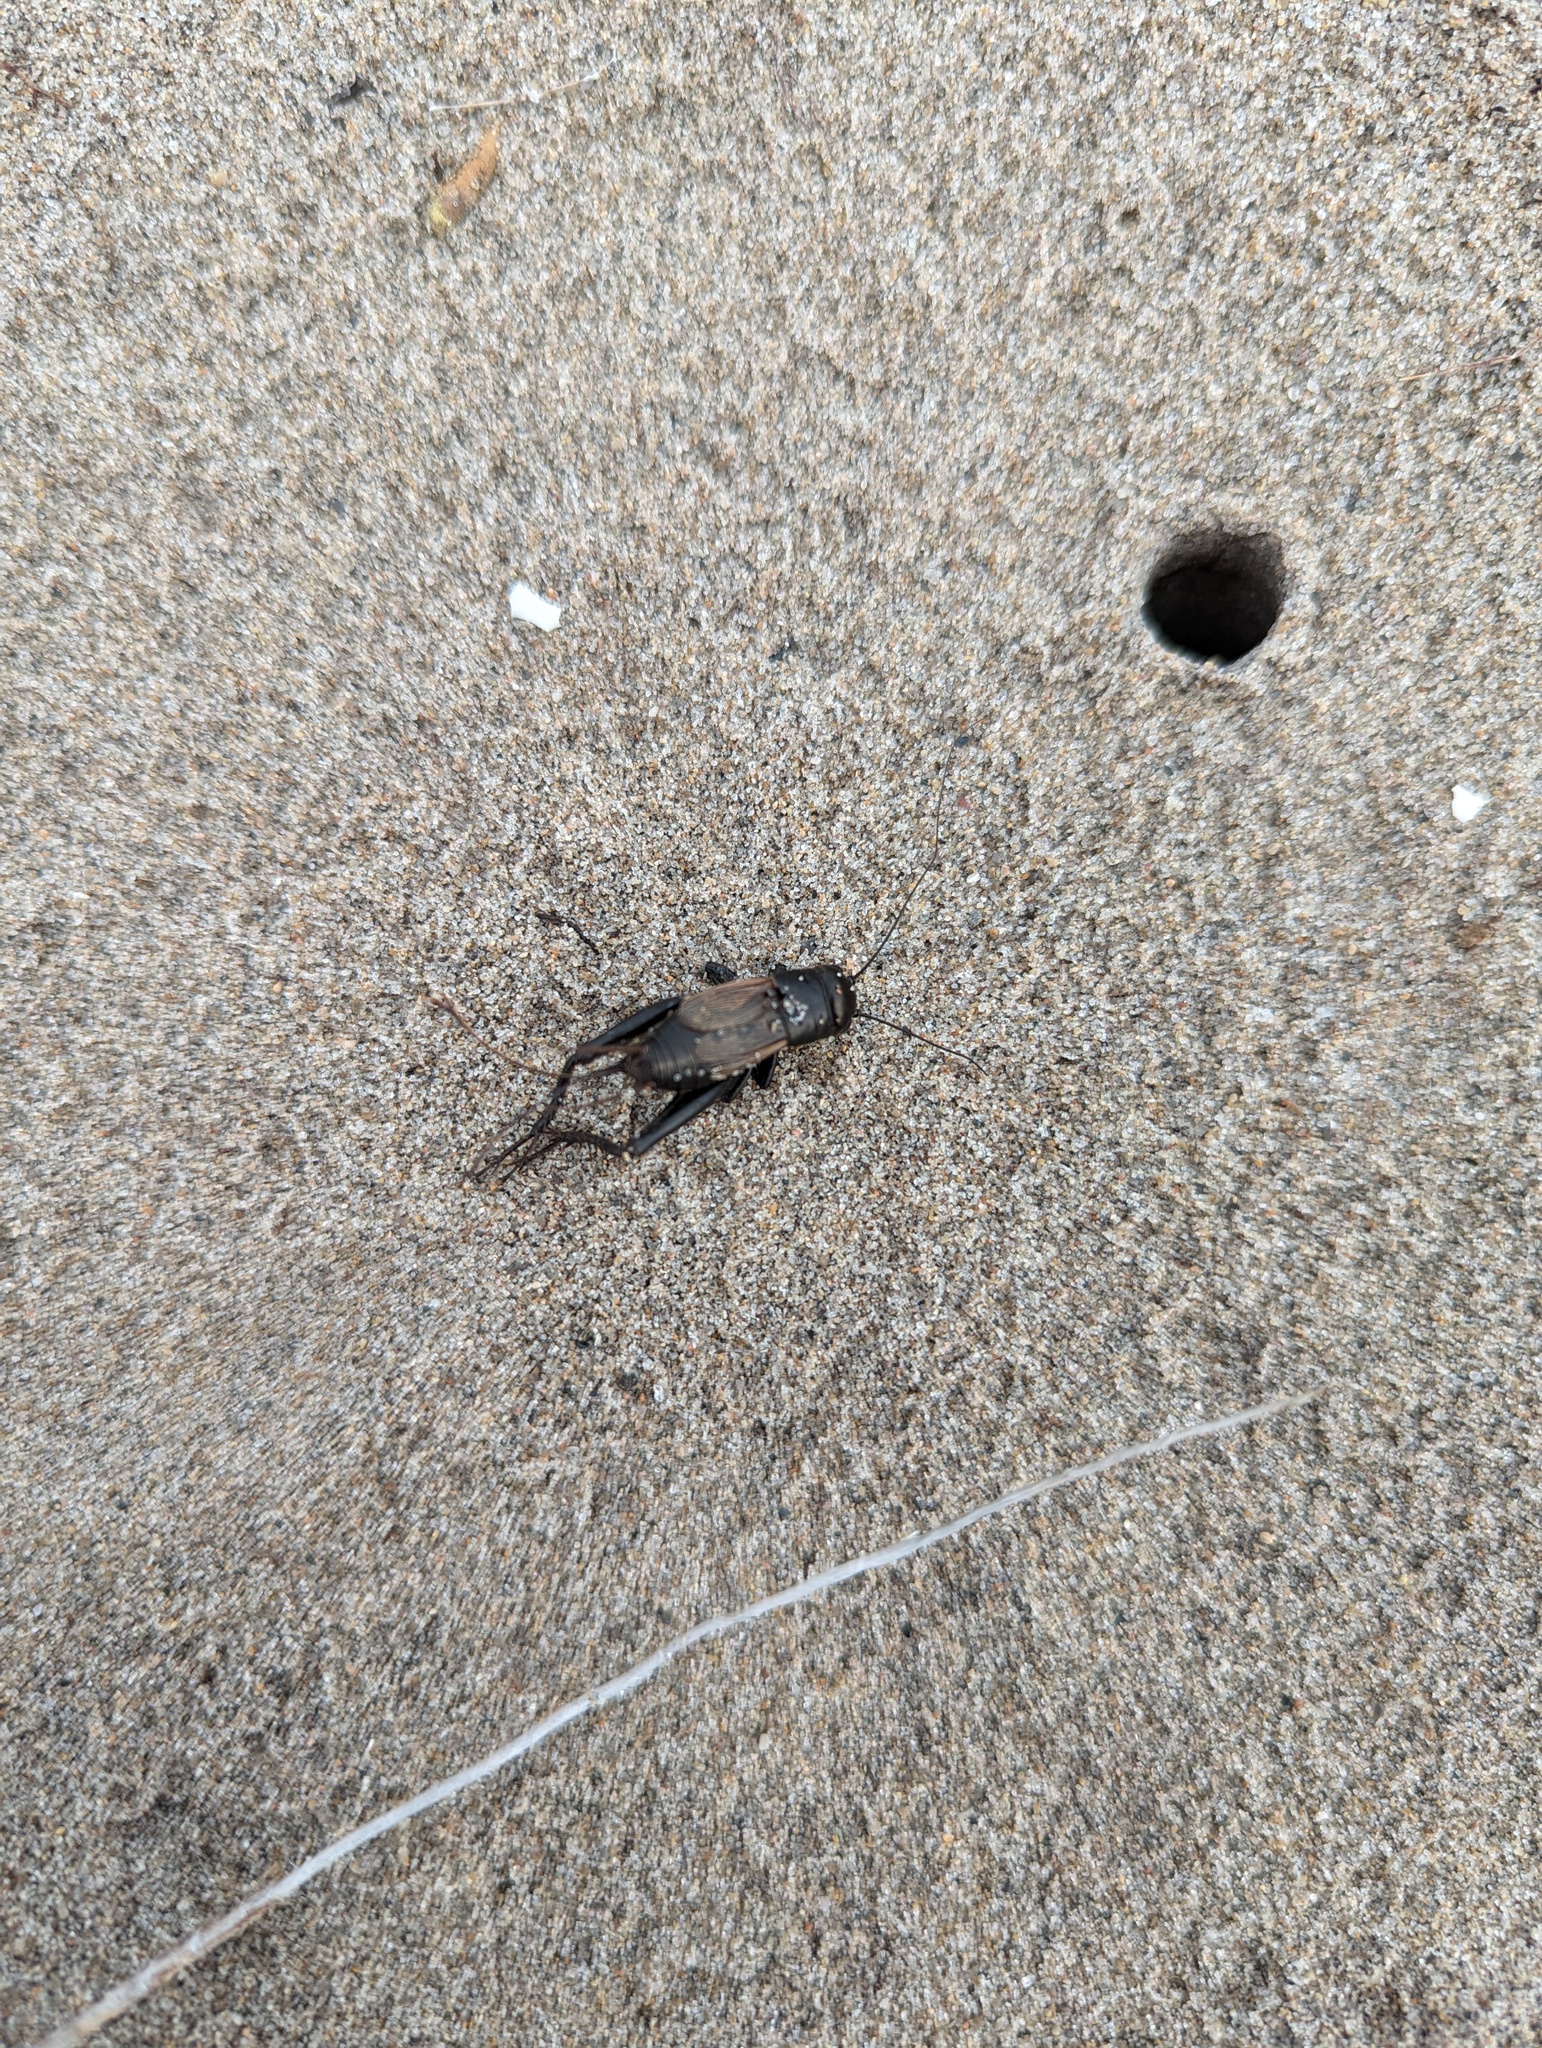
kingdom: Animalia
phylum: Arthropoda
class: Insecta
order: Orthoptera
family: Gryllidae
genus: Gryllus
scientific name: Gryllus pennsylvanicus
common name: Fall field cricket
